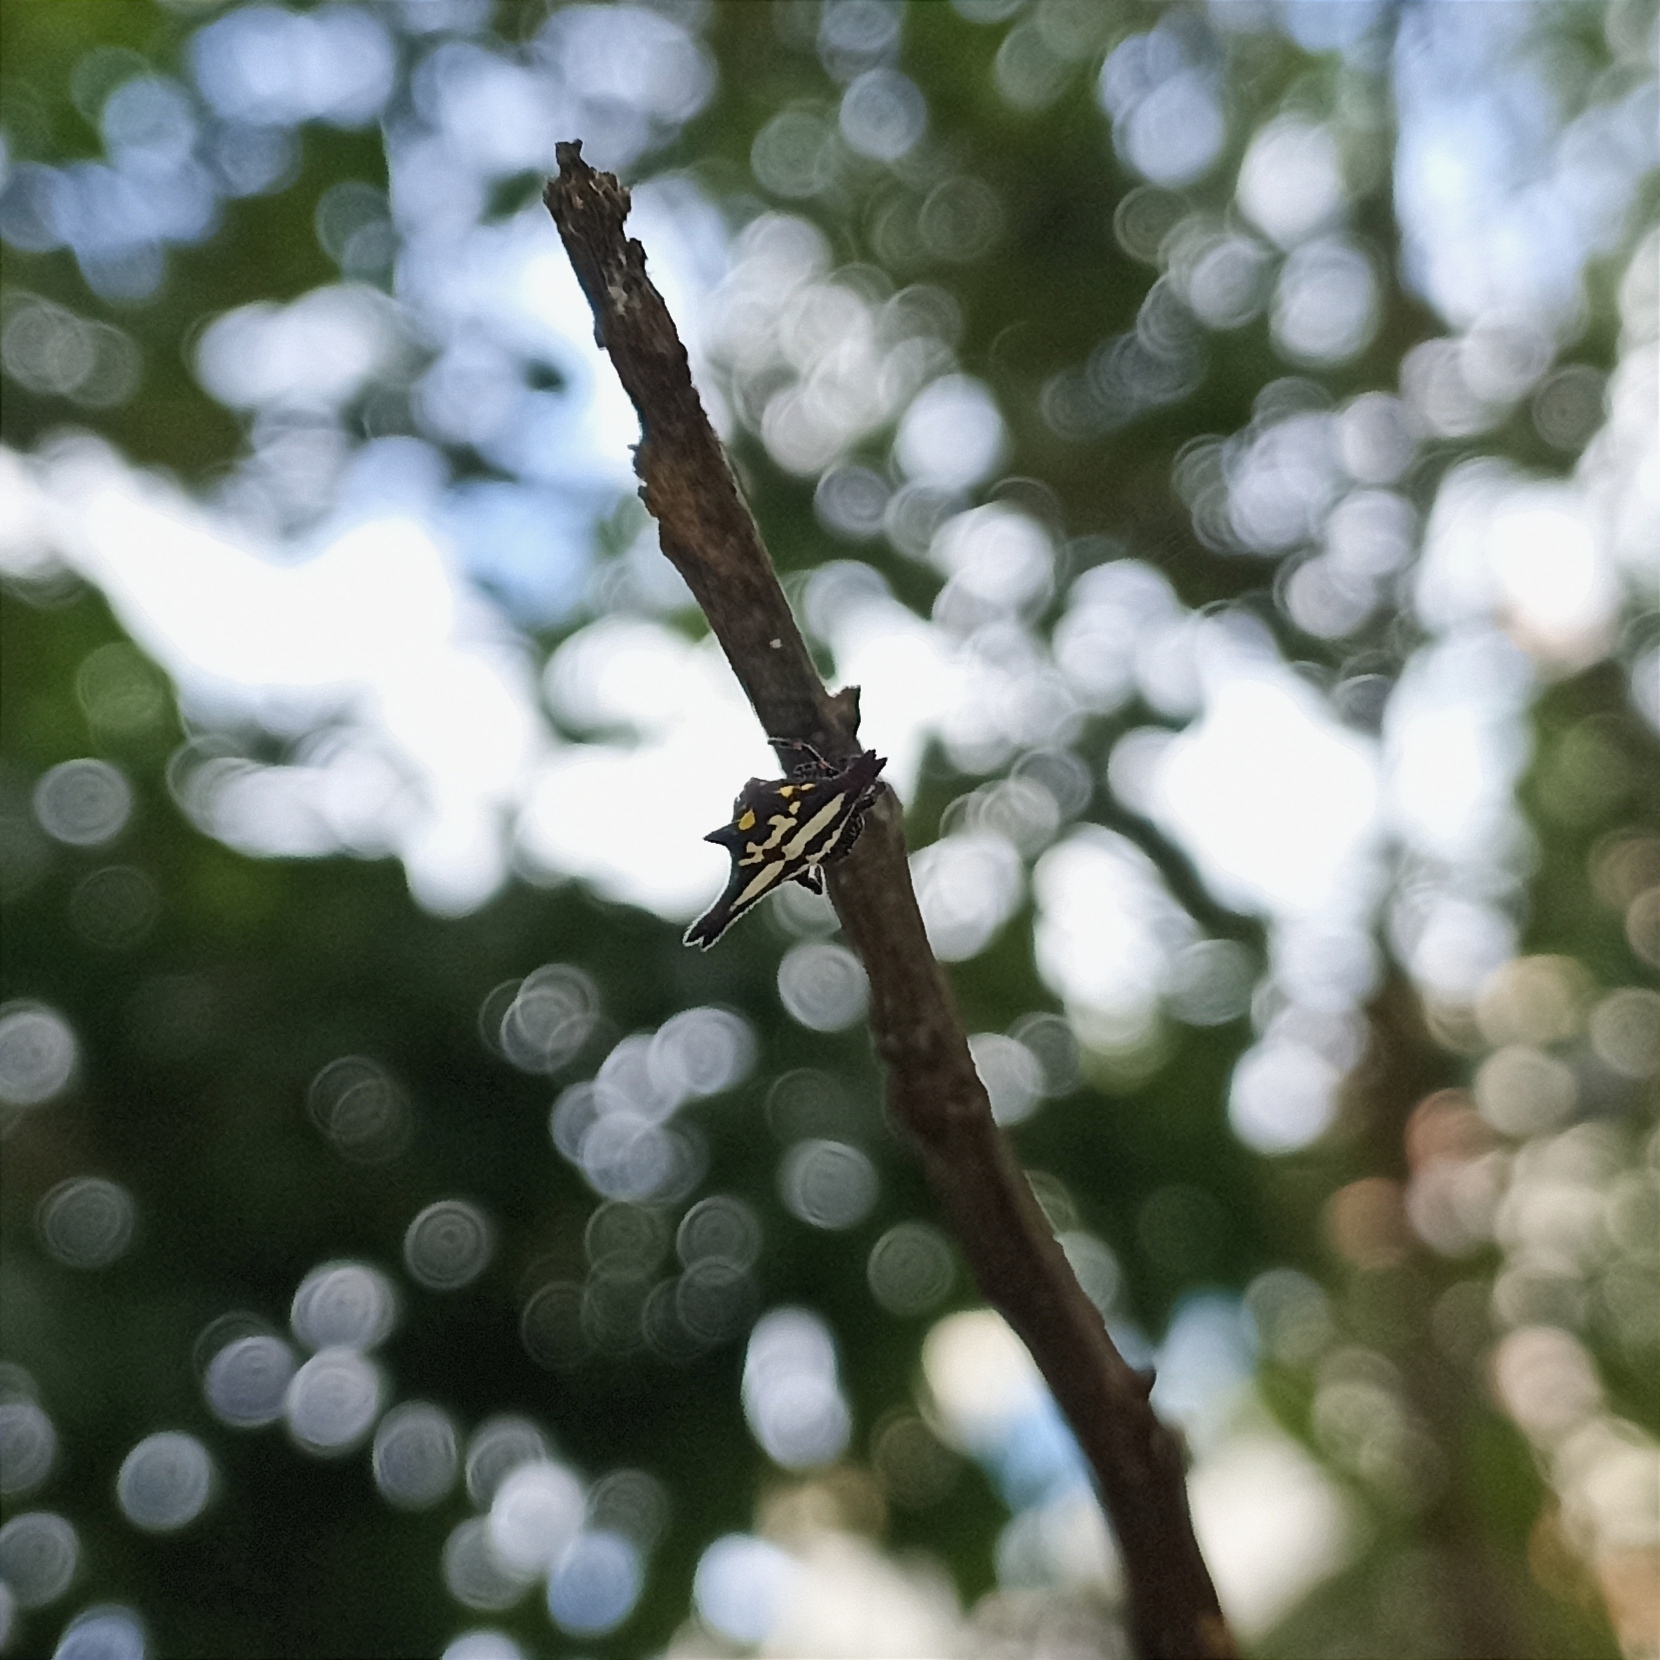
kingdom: Animalia
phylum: Arthropoda
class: Arachnida
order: Araneae
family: Araneidae
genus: Gasteracantha
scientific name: Gasteracantha geminata
